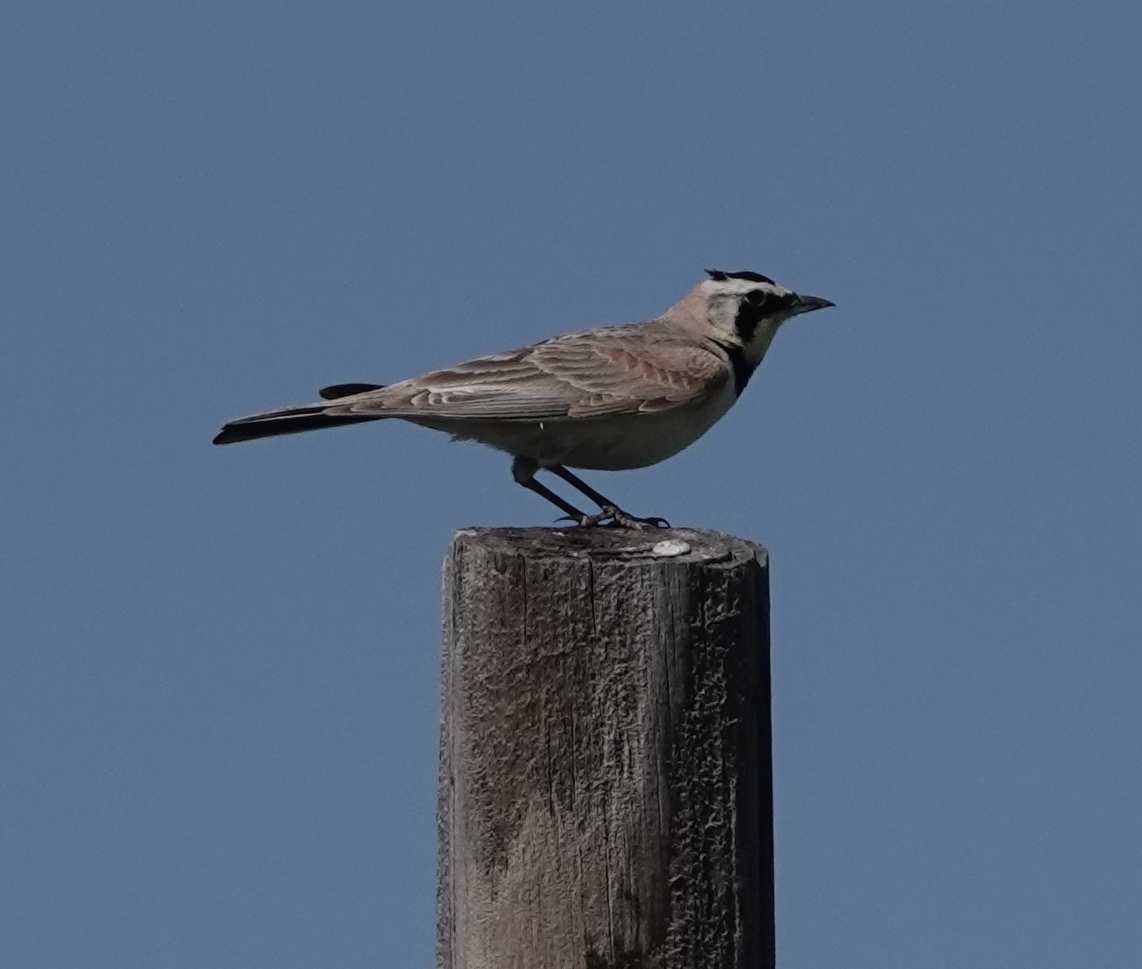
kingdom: Animalia
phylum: Chordata
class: Aves
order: Passeriformes
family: Alaudidae
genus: Eremophila
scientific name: Eremophila alpestris
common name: Horned lark
